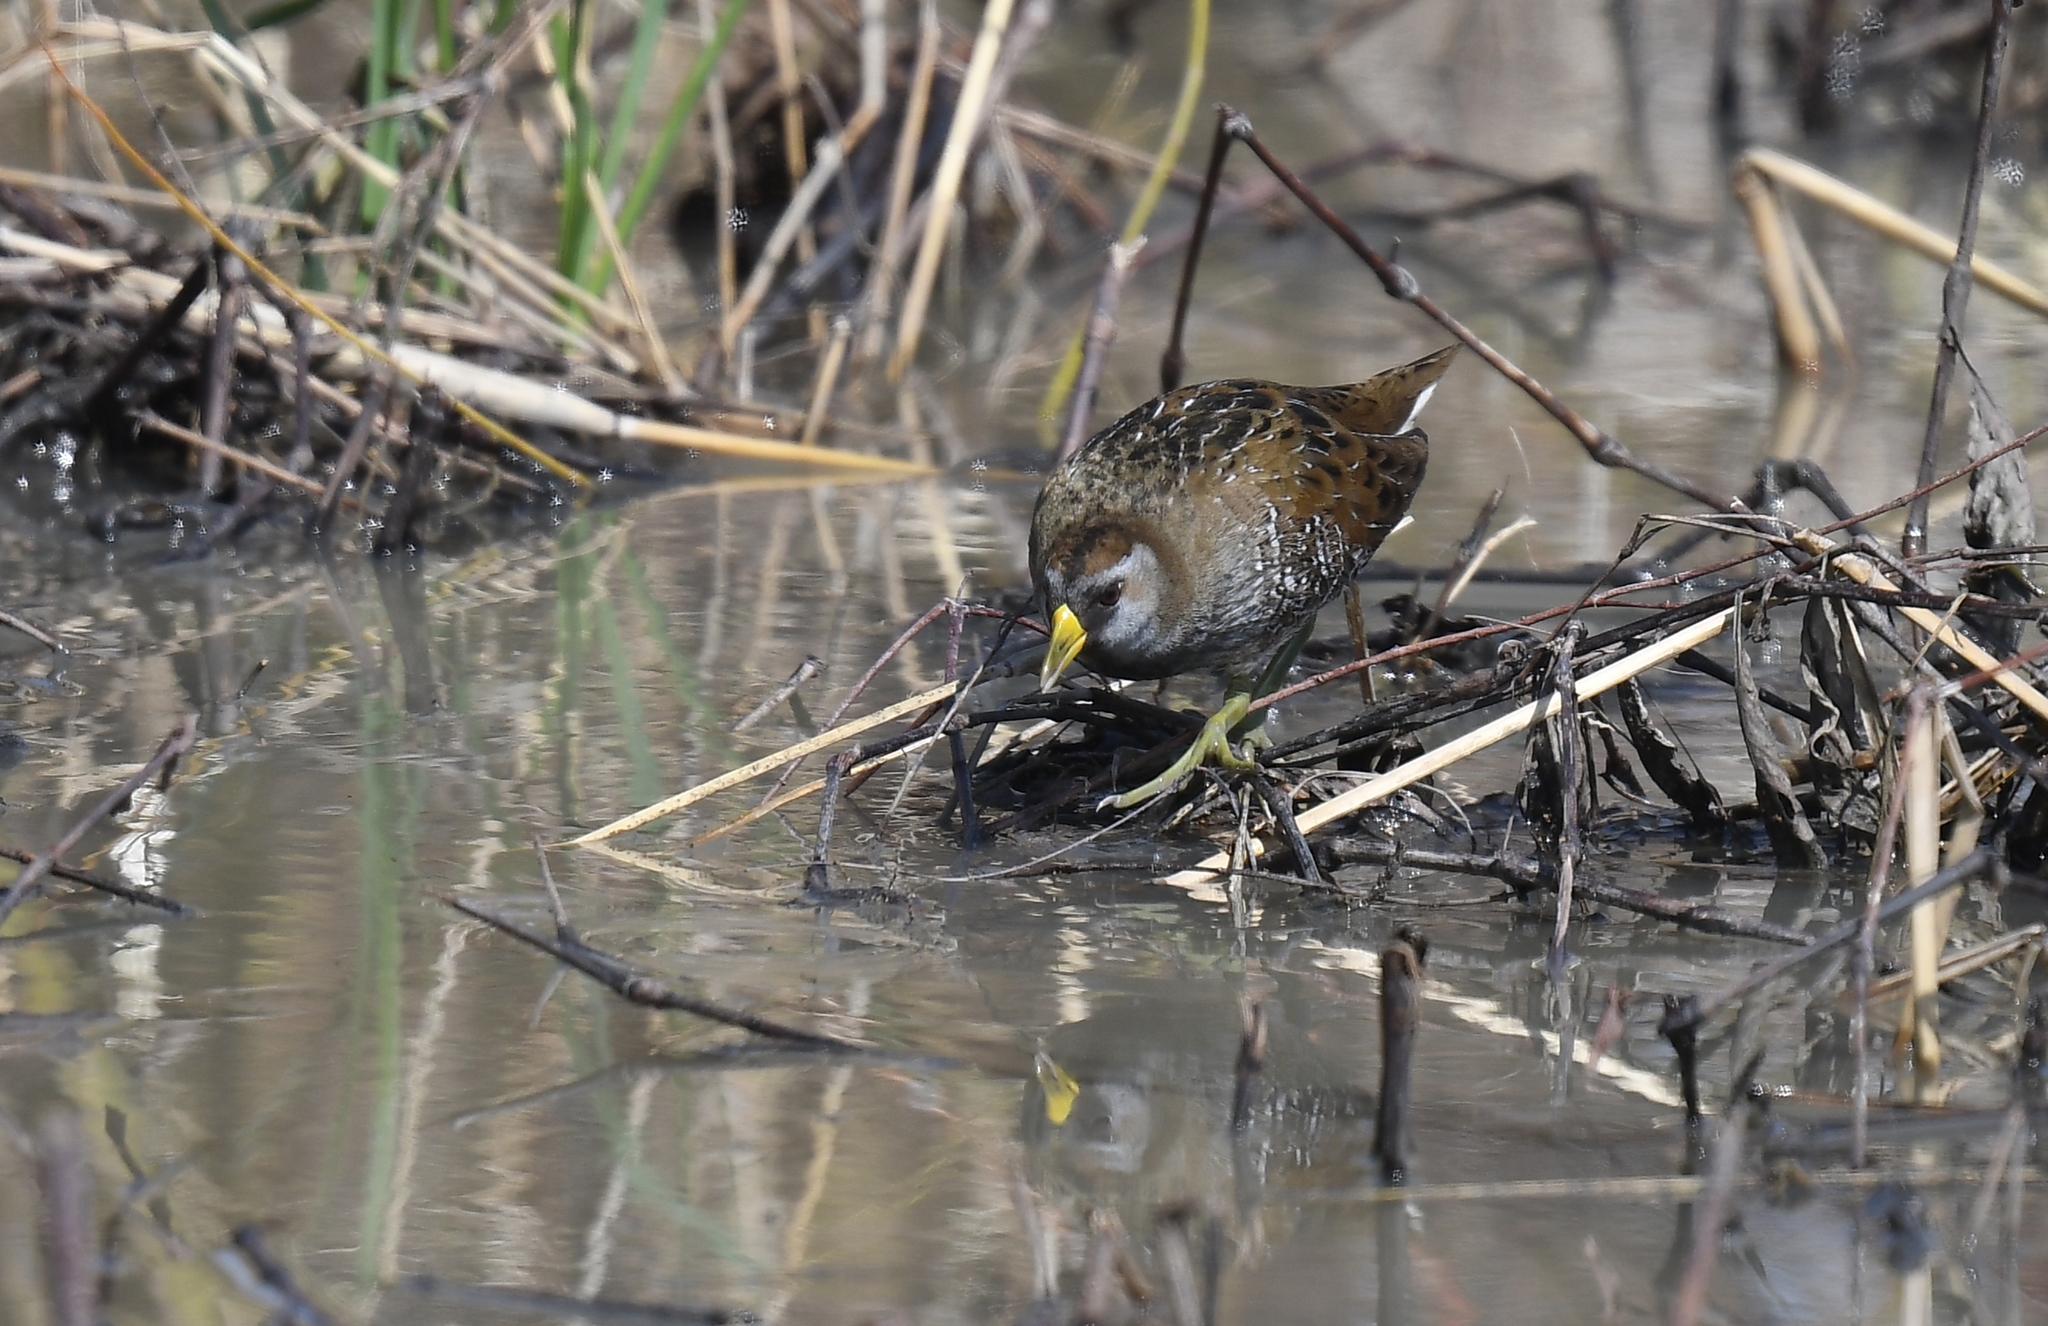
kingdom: Animalia
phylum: Chordata
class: Aves
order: Gruiformes
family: Rallidae
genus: Porzana
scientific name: Porzana carolina
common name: Sora
